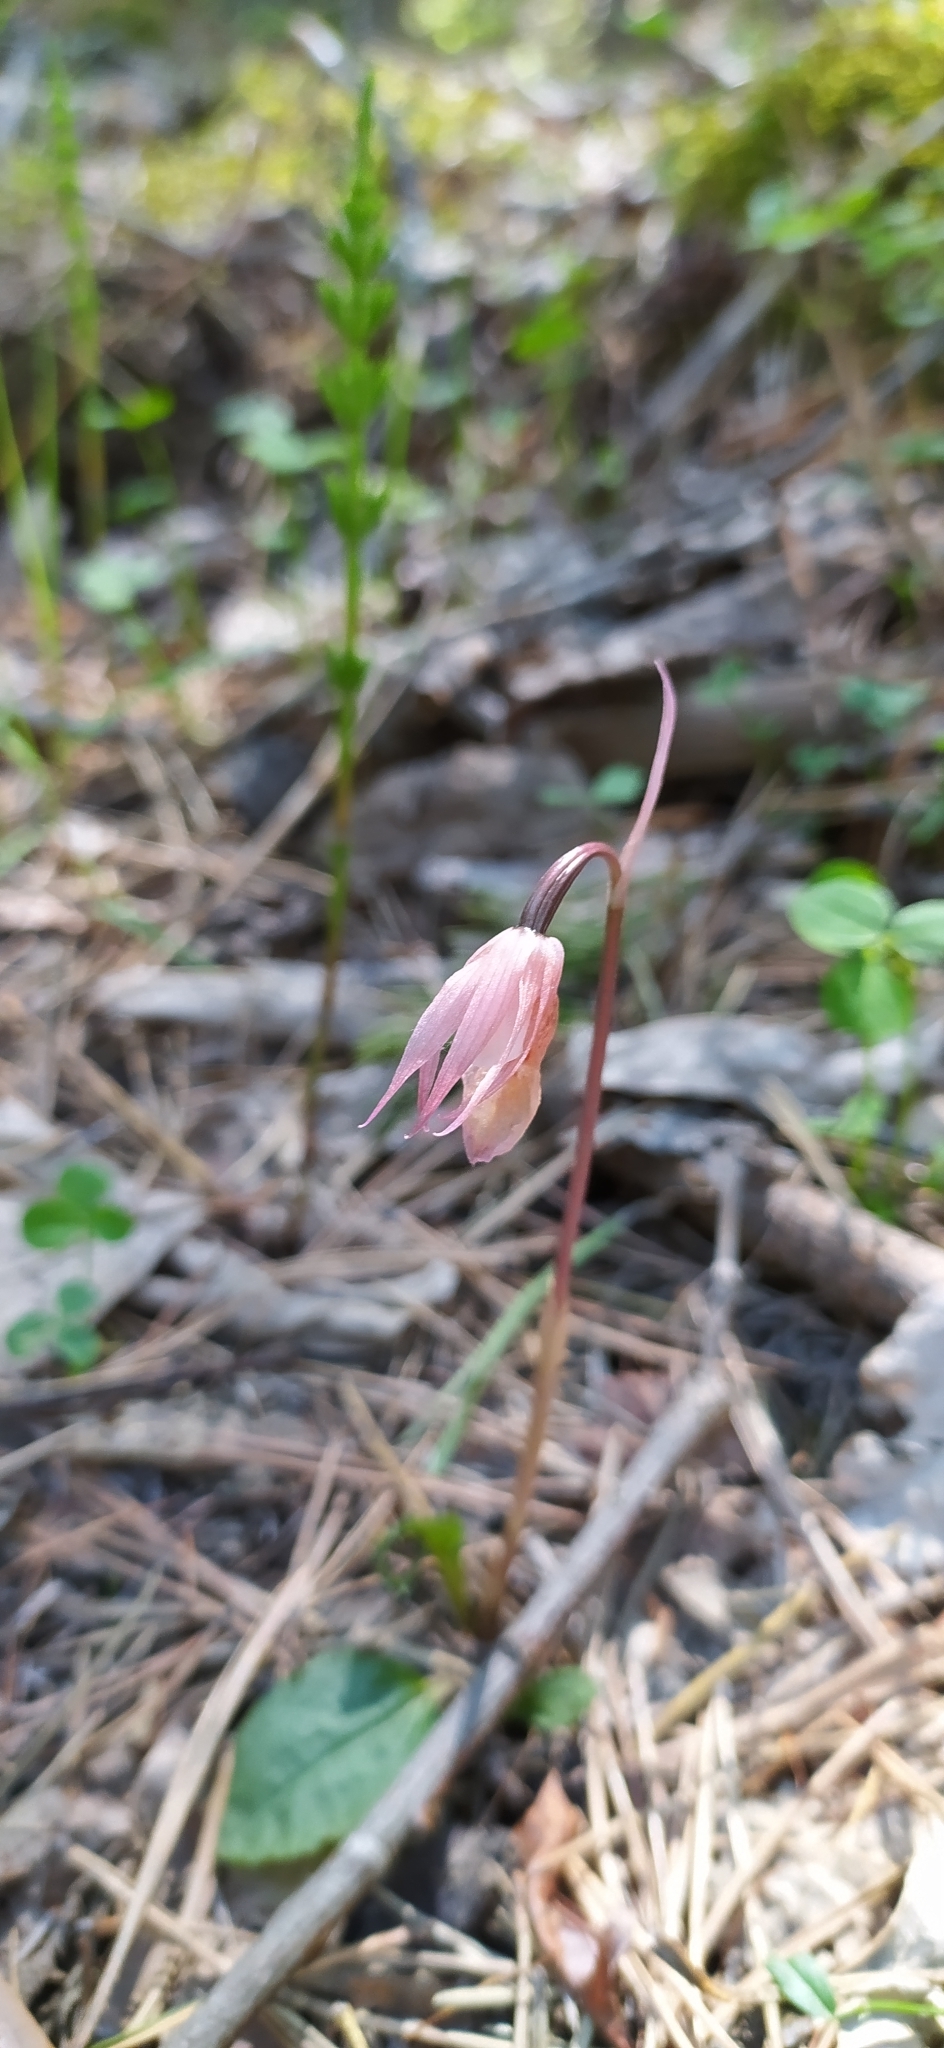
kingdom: Plantae
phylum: Tracheophyta
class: Liliopsida
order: Asparagales
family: Orchidaceae
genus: Calypso
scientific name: Calypso bulbosa
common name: Calypso
